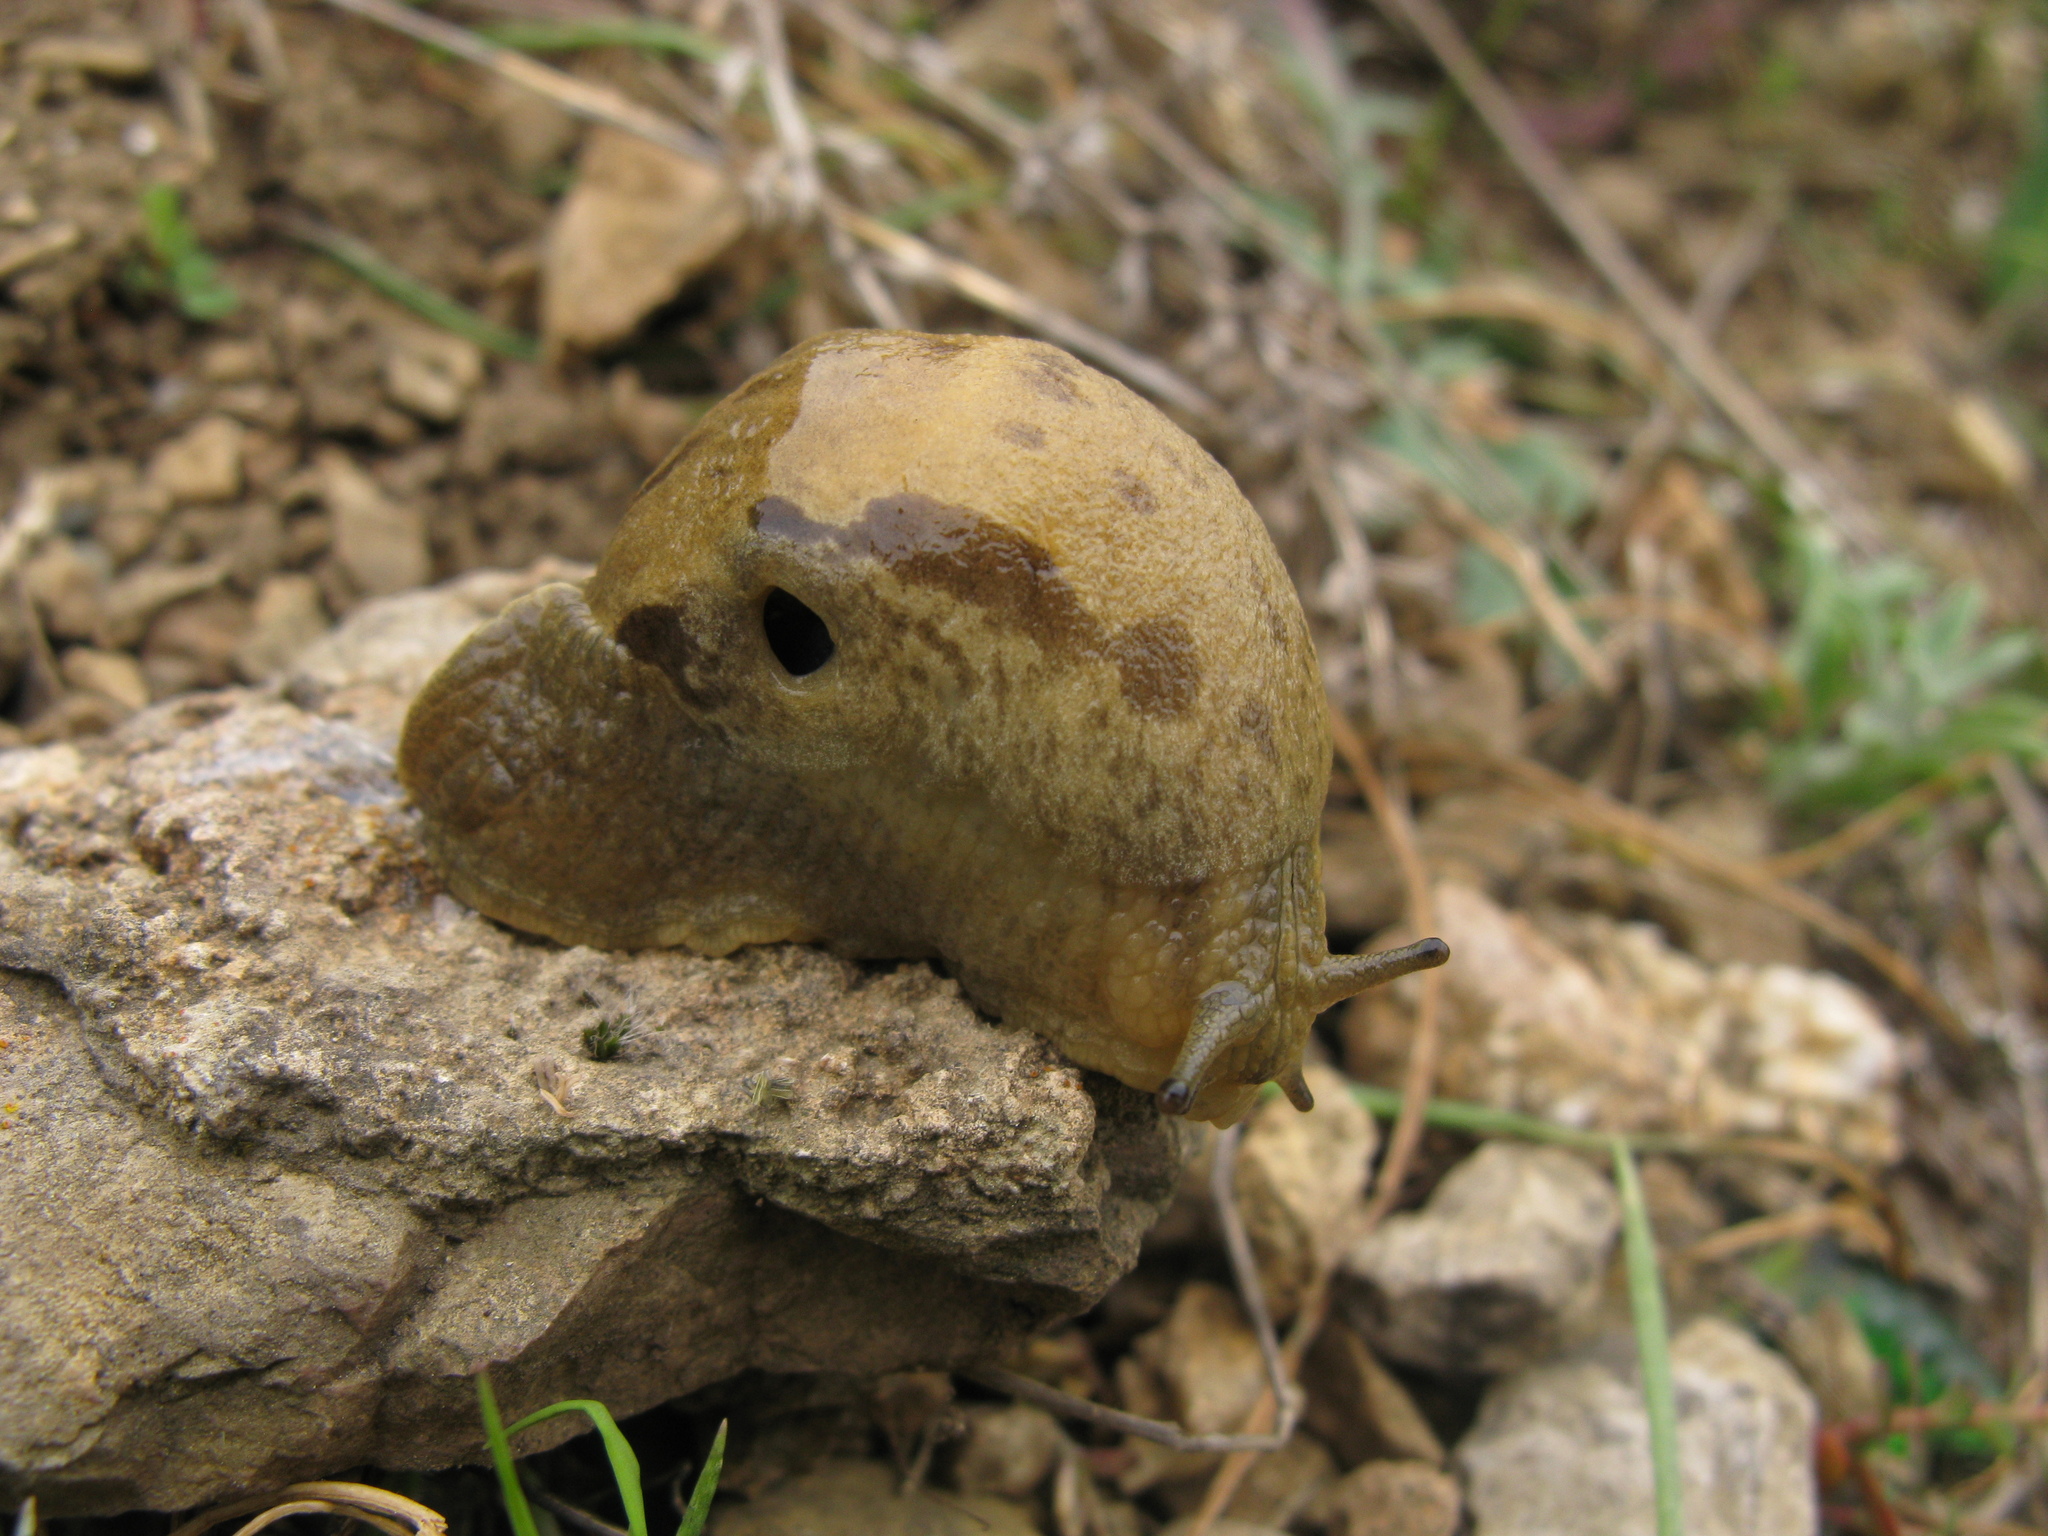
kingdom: Animalia
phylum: Mollusca
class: Gastropoda
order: Stylommatophora
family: Parmacellidae
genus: Drusia
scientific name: Drusia ibera
